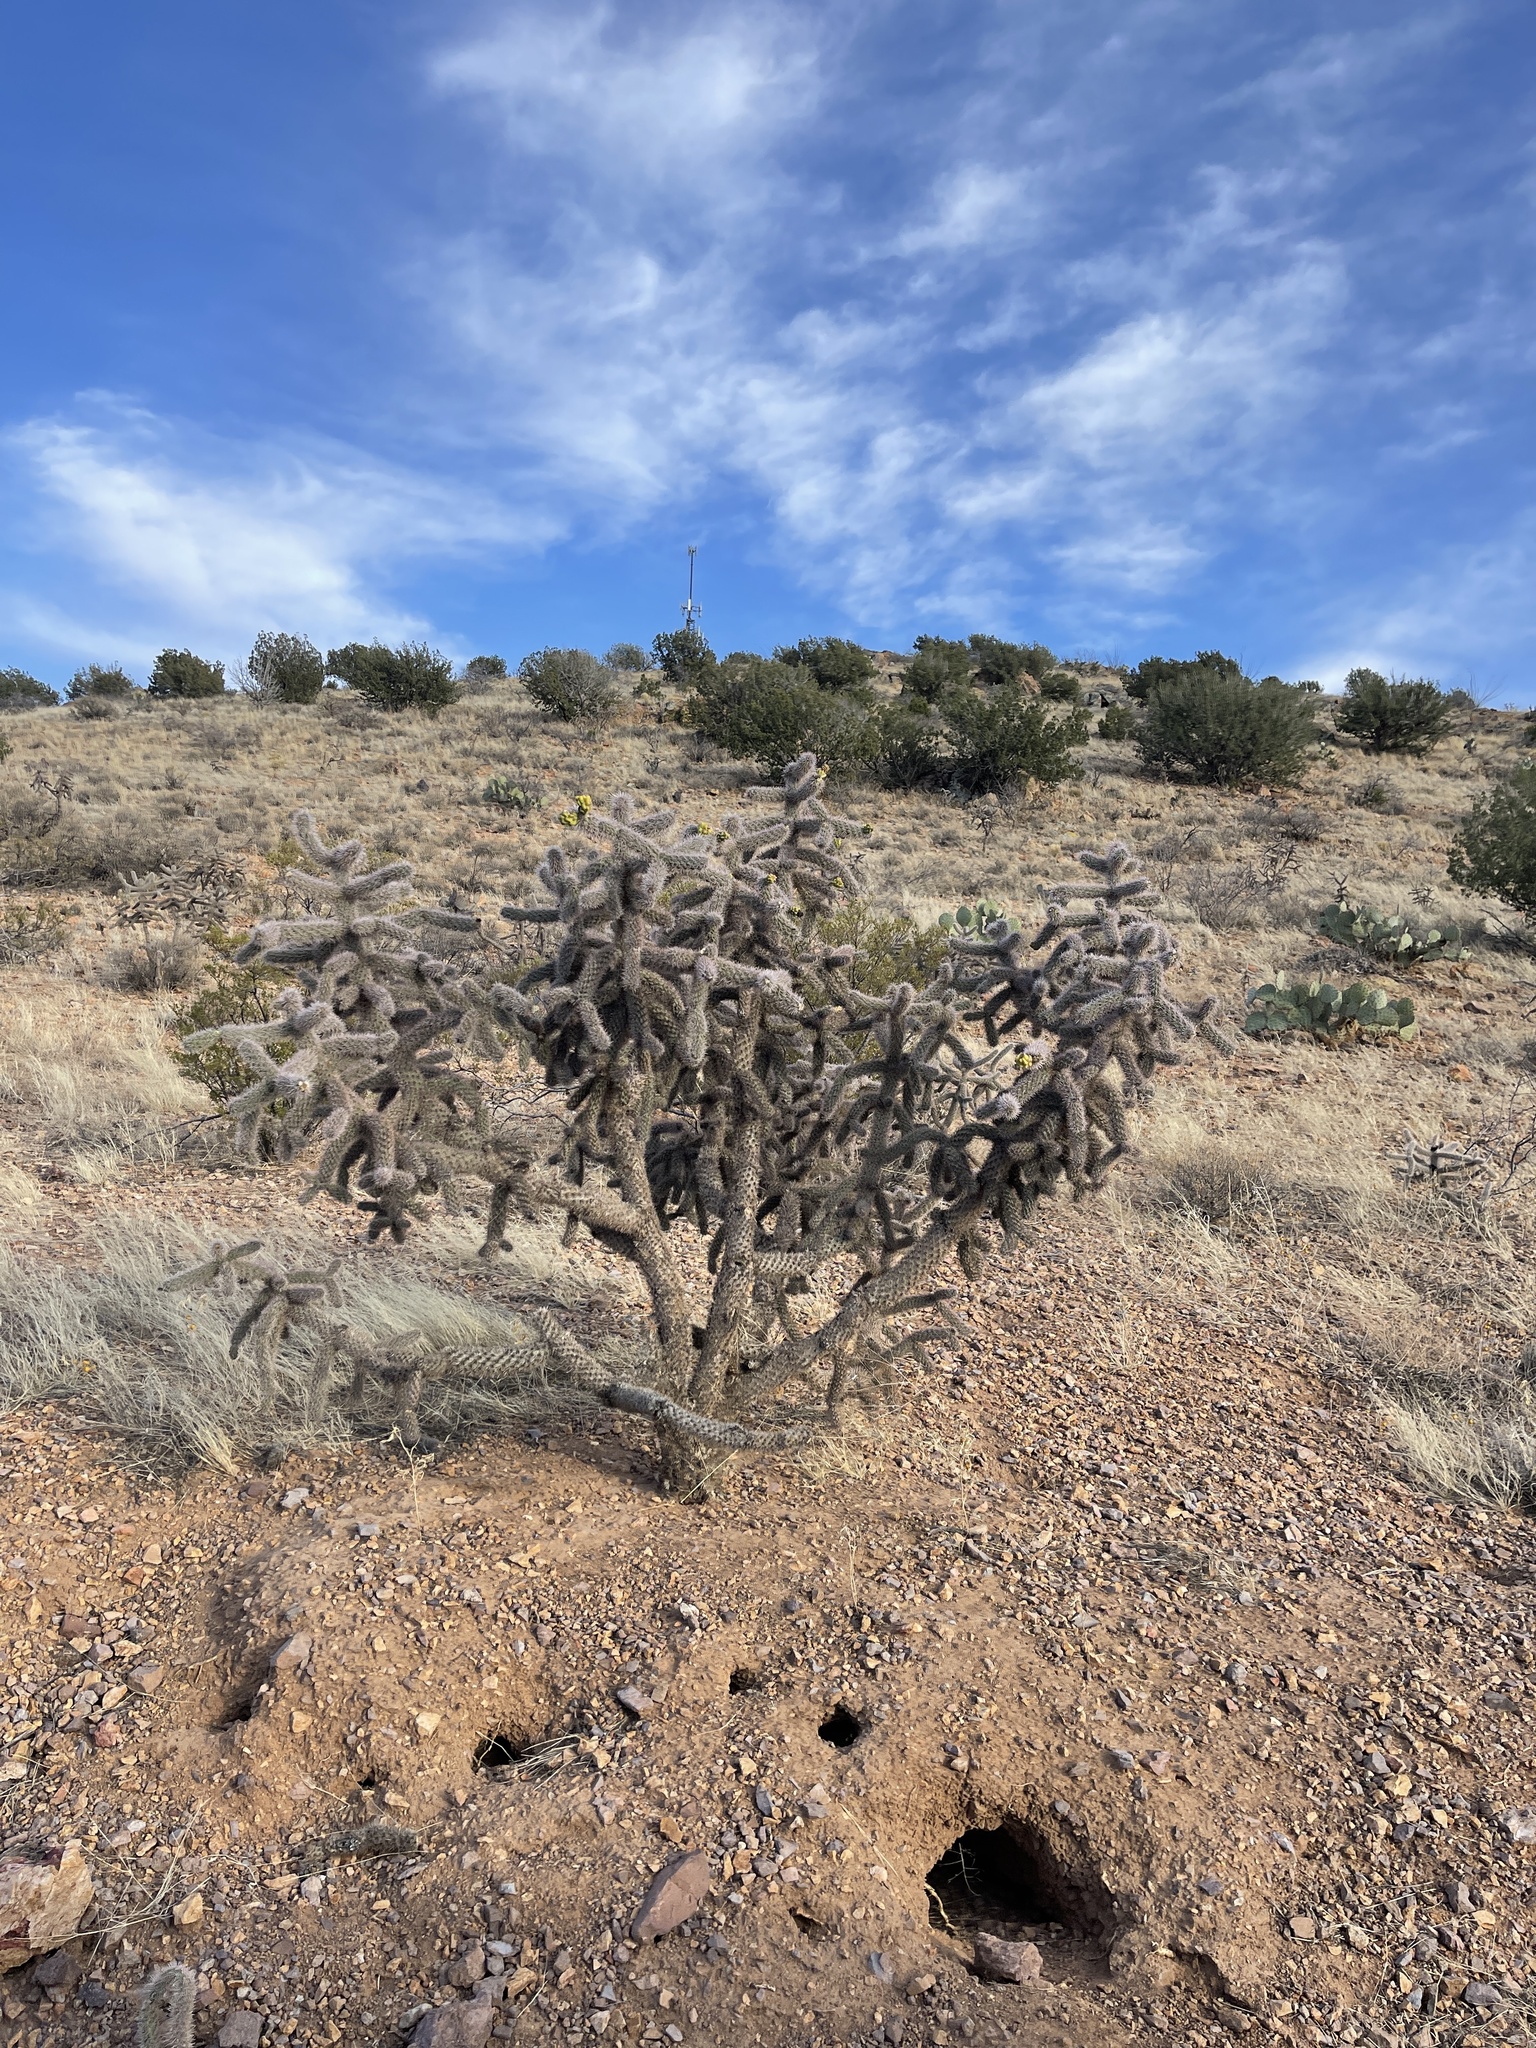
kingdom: Plantae
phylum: Tracheophyta
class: Magnoliopsida
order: Caryophyllales
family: Cactaceae
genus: Cylindropuntia
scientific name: Cylindropuntia imbricata
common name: Candelabrum cactus
